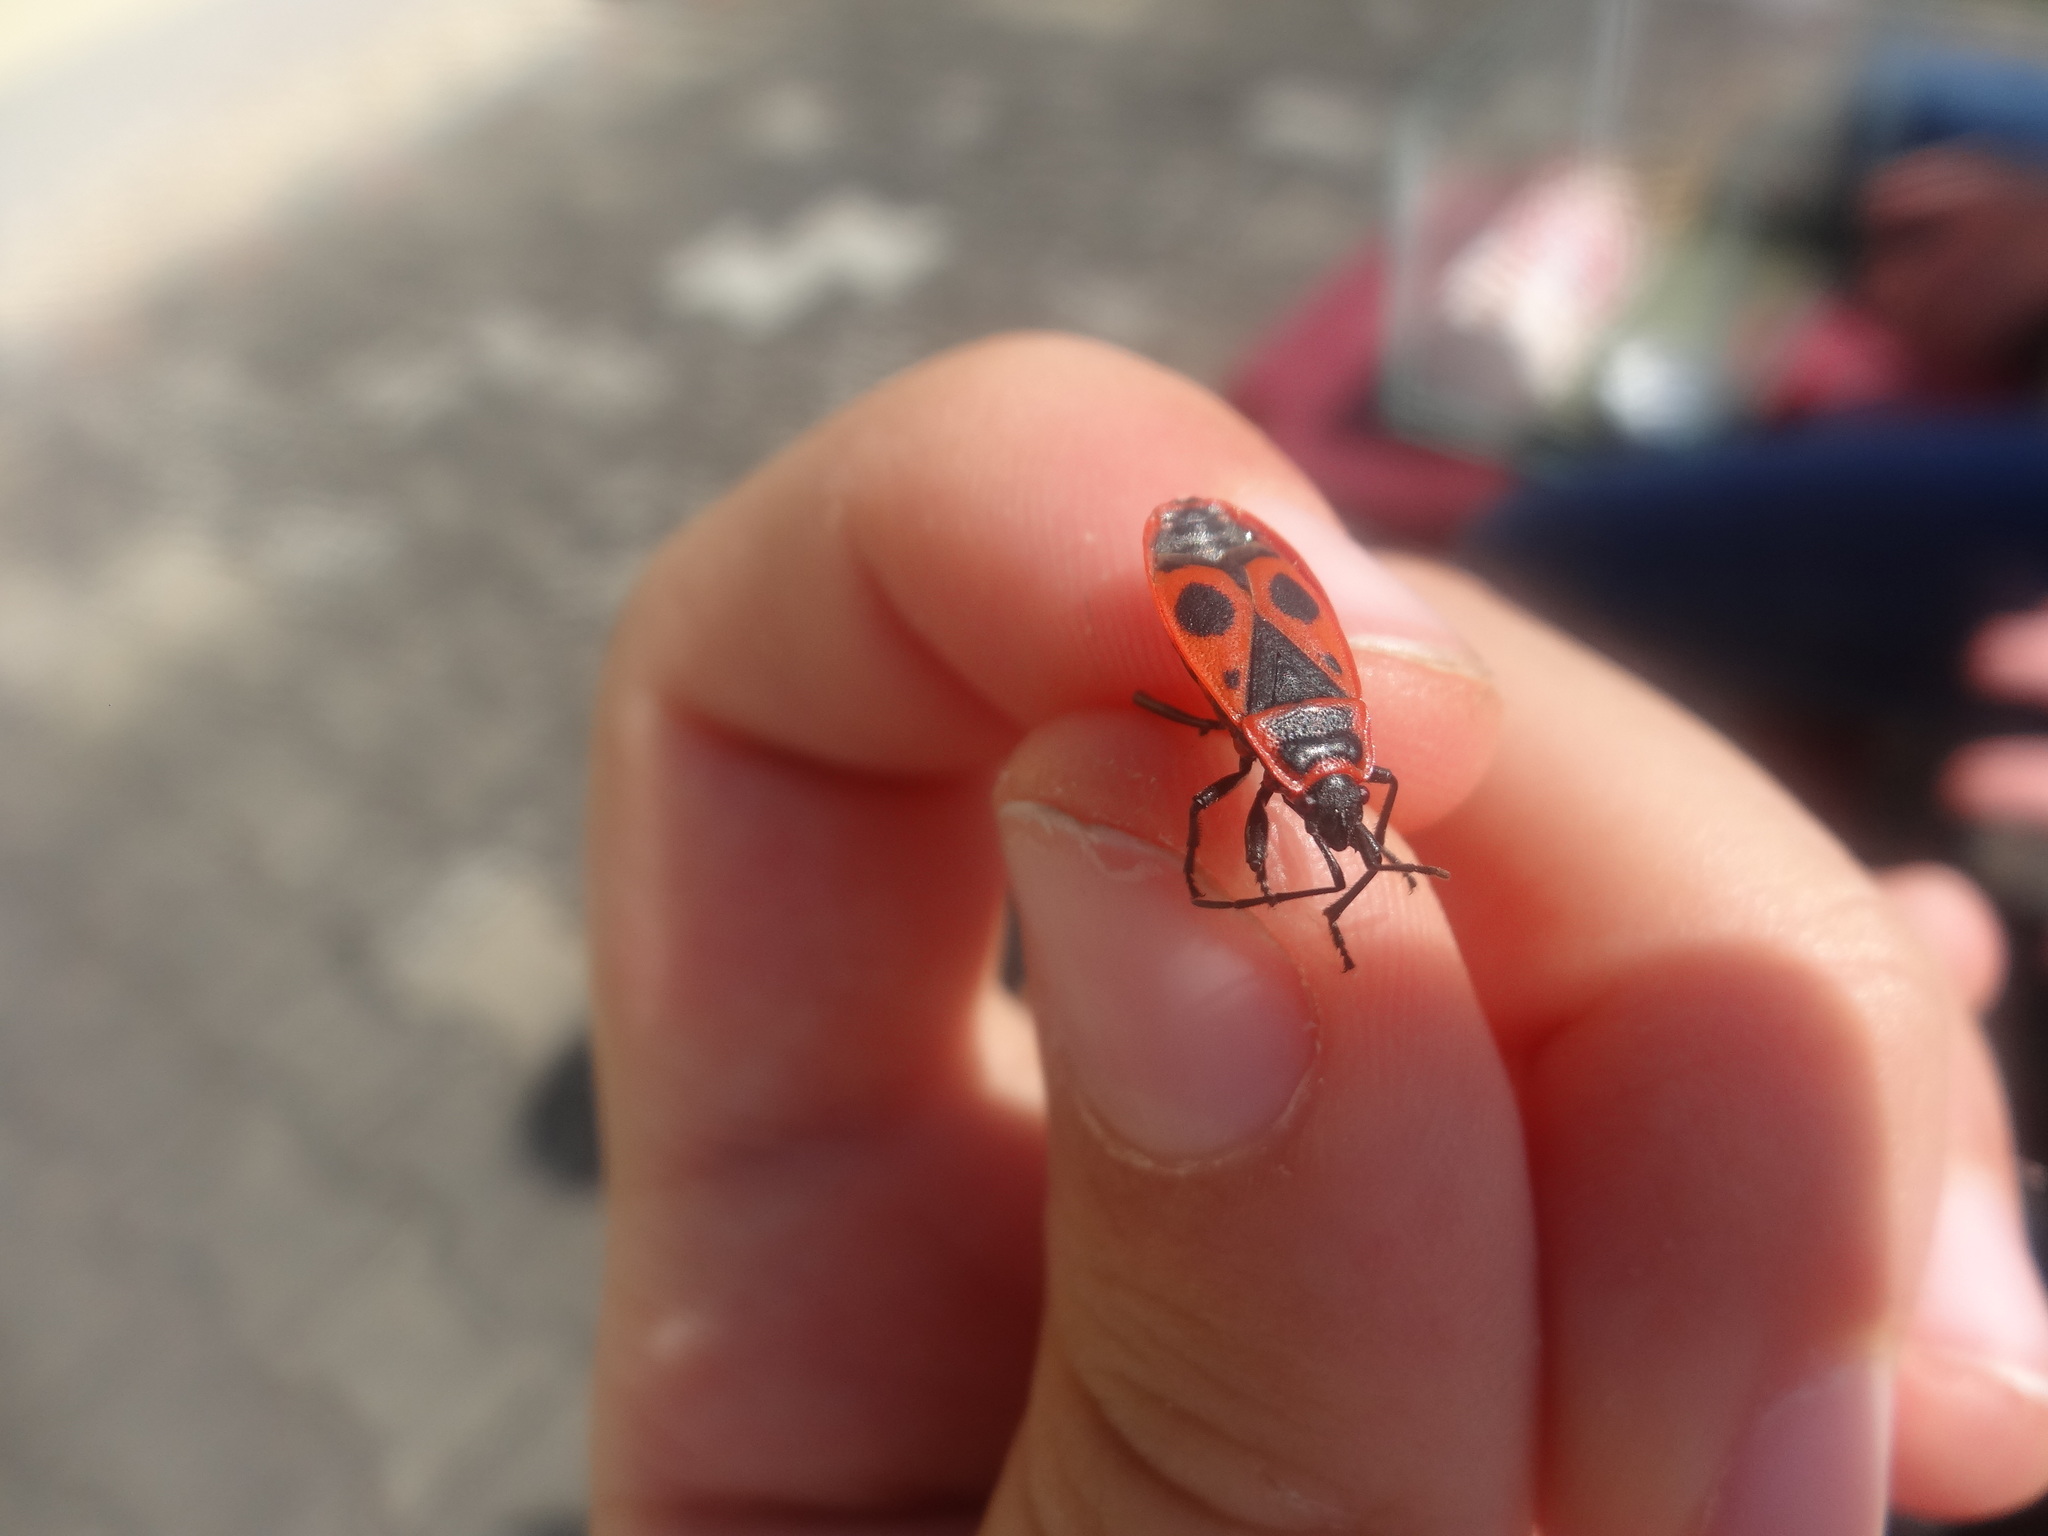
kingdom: Animalia
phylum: Arthropoda
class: Insecta
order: Hemiptera
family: Pyrrhocoridae
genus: Pyrrhocoris
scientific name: Pyrrhocoris apterus
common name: Firebug
